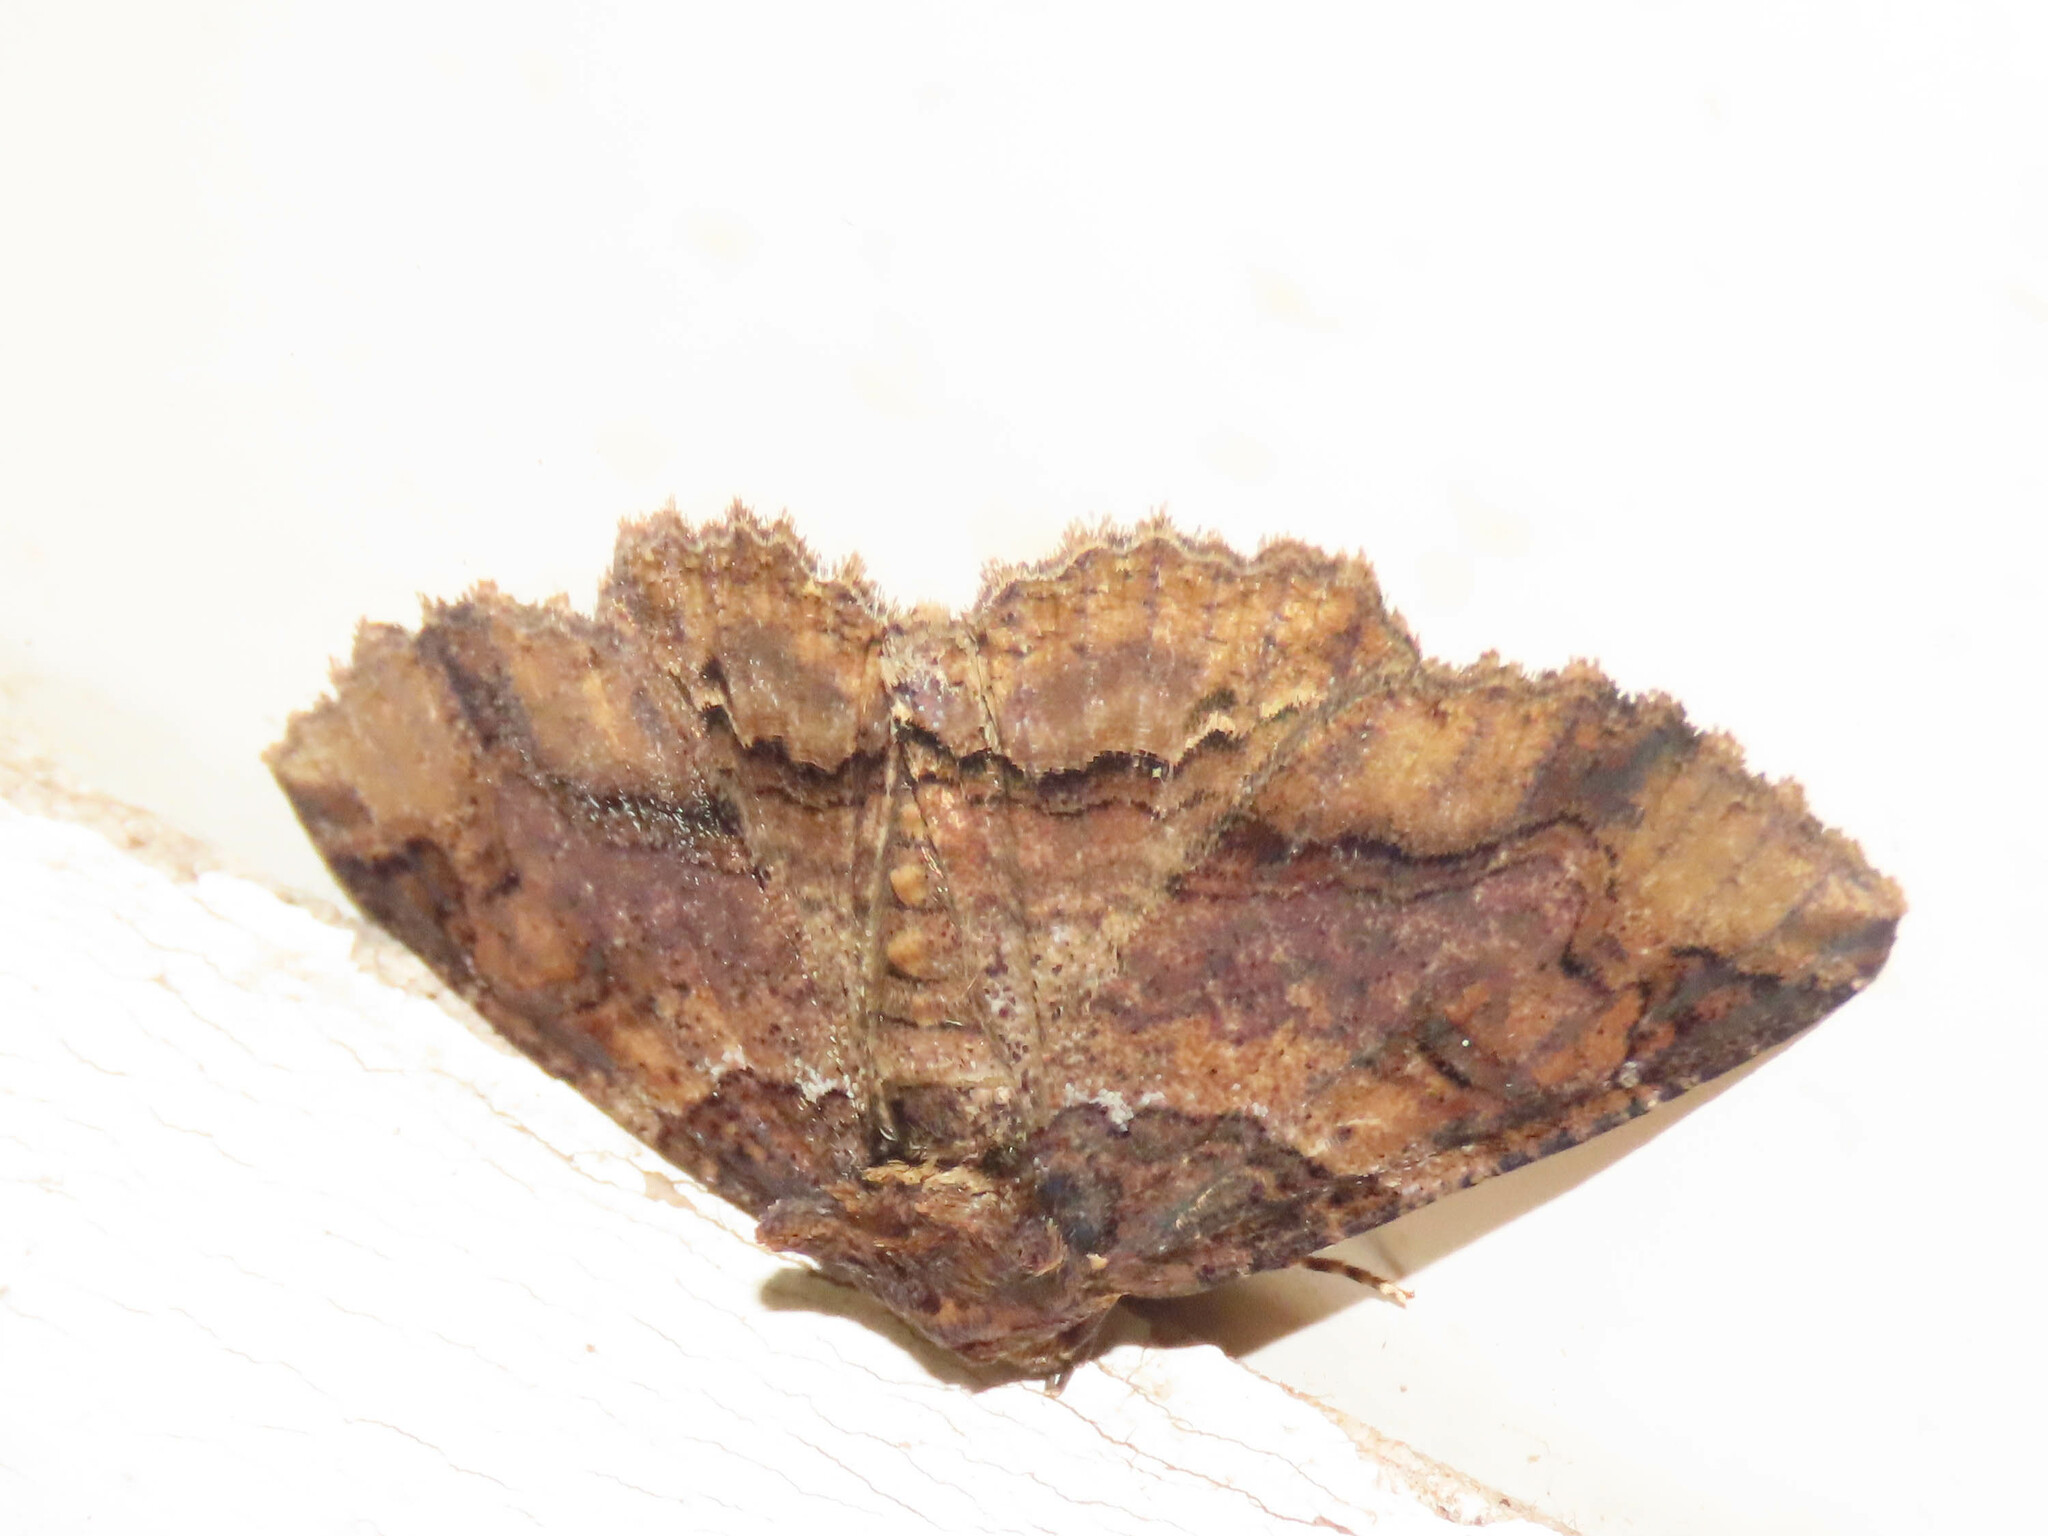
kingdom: Animalia
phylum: Arthropoda
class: Insecta
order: Lepidoptera
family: Erebidae
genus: Zale
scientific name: Zale minerea
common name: Colorful zale moth
